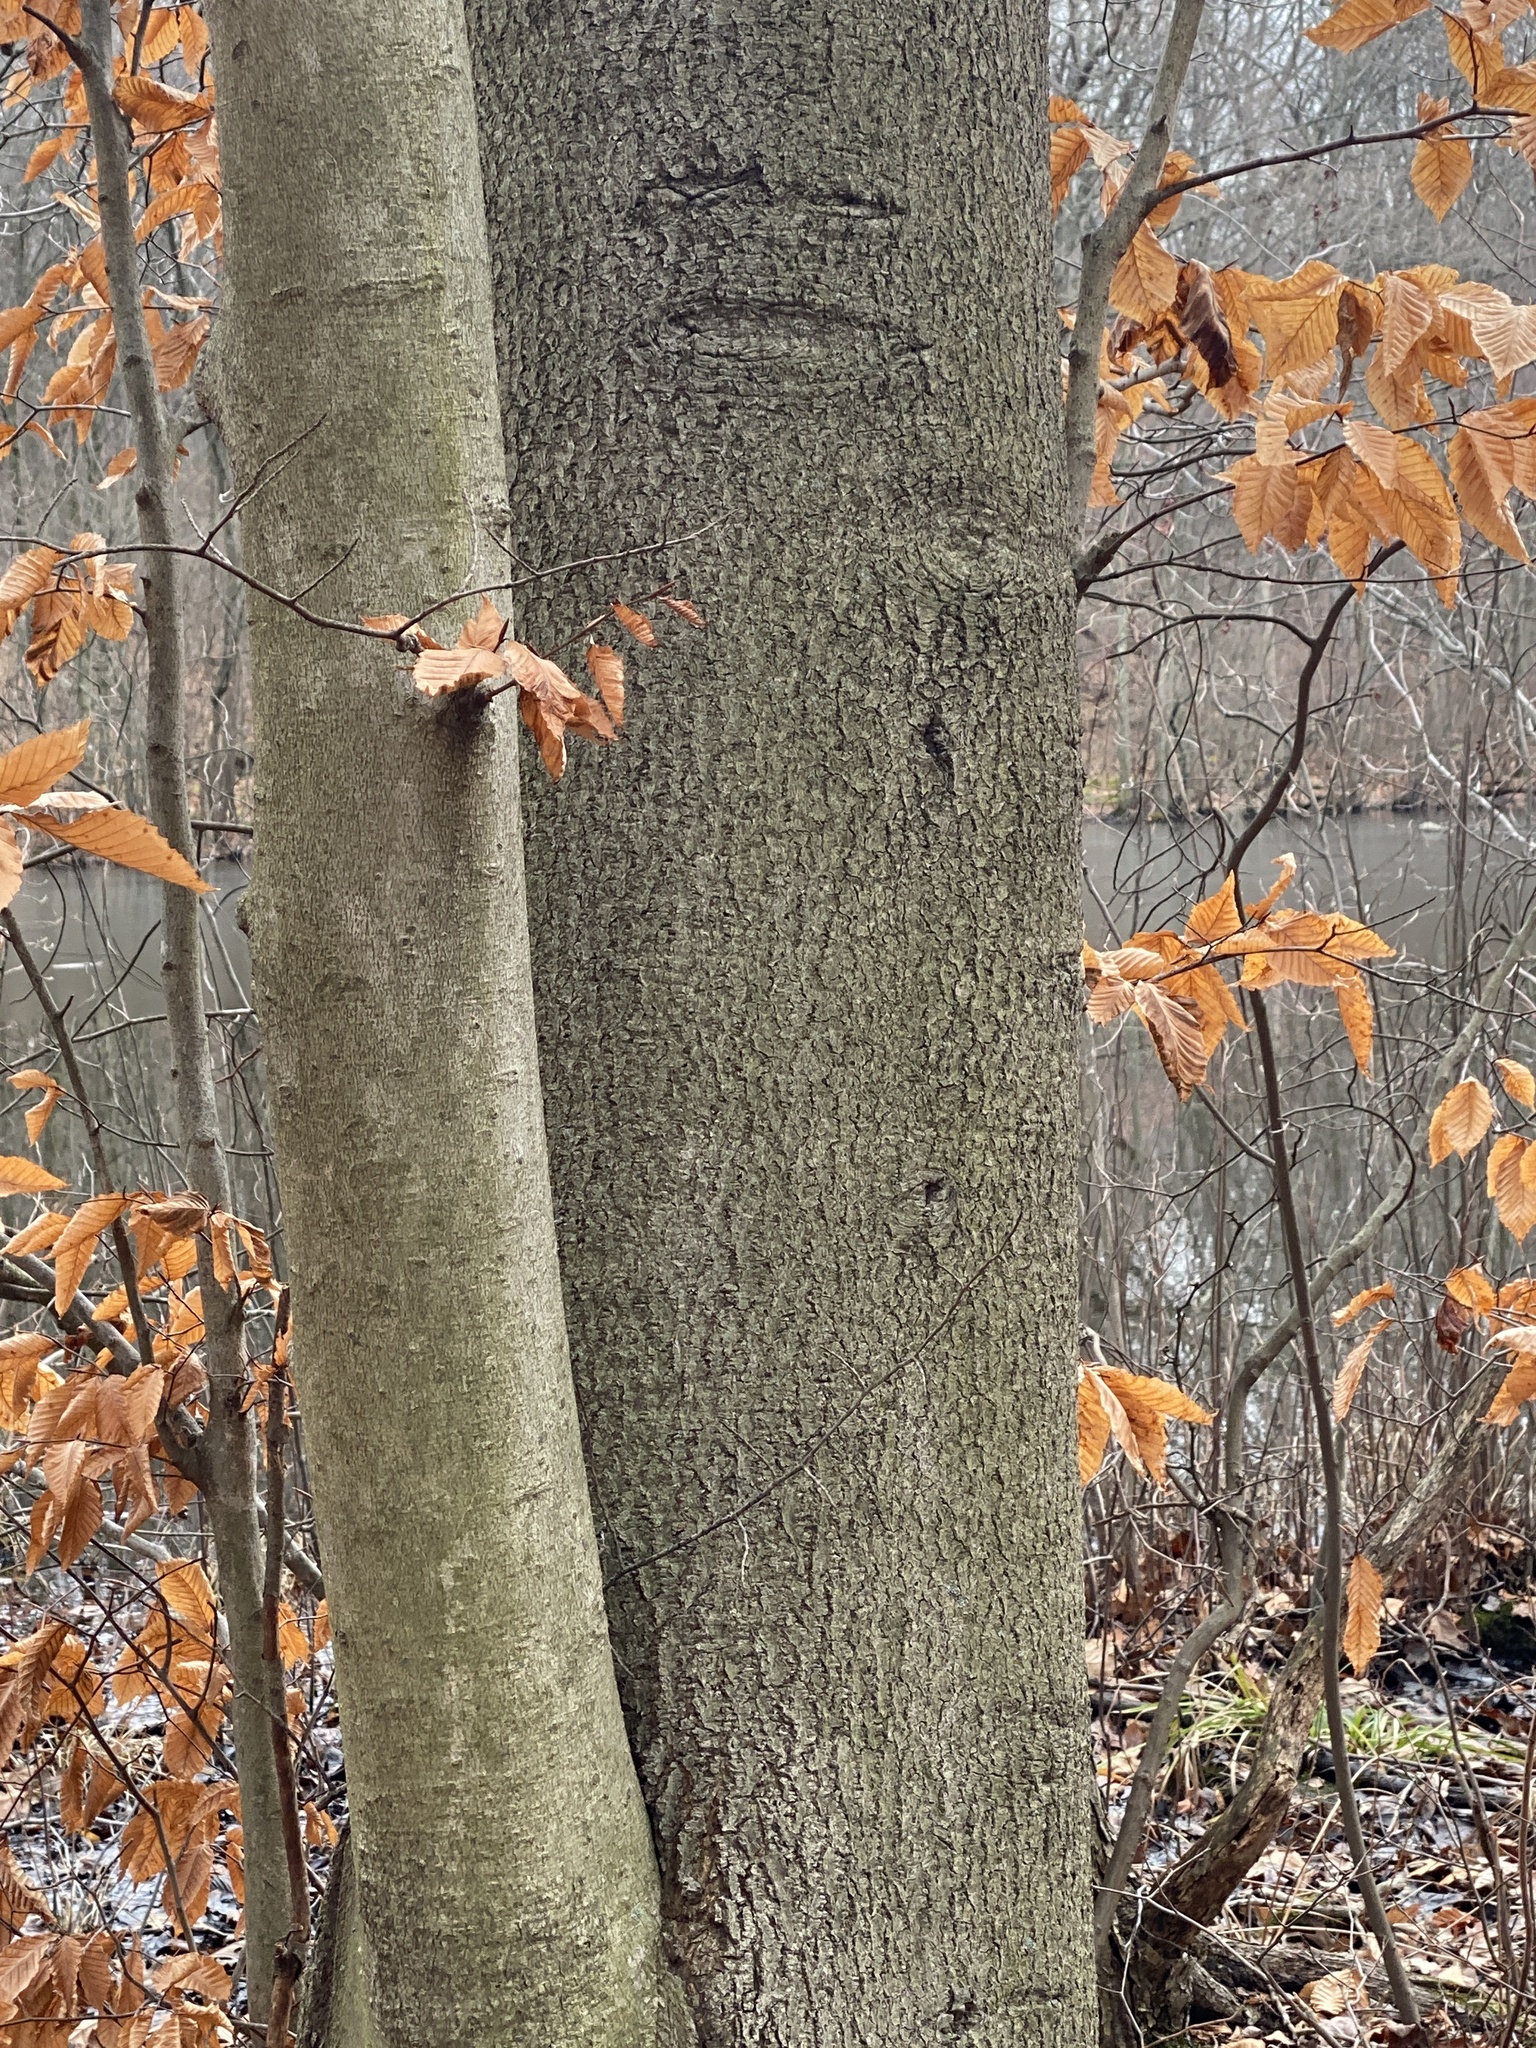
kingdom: Plantae
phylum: Tracheophyta
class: Magnoliopsida
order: Fagales
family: Fagaceae
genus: Fagus
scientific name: Fagus grandifolia
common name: American beech
